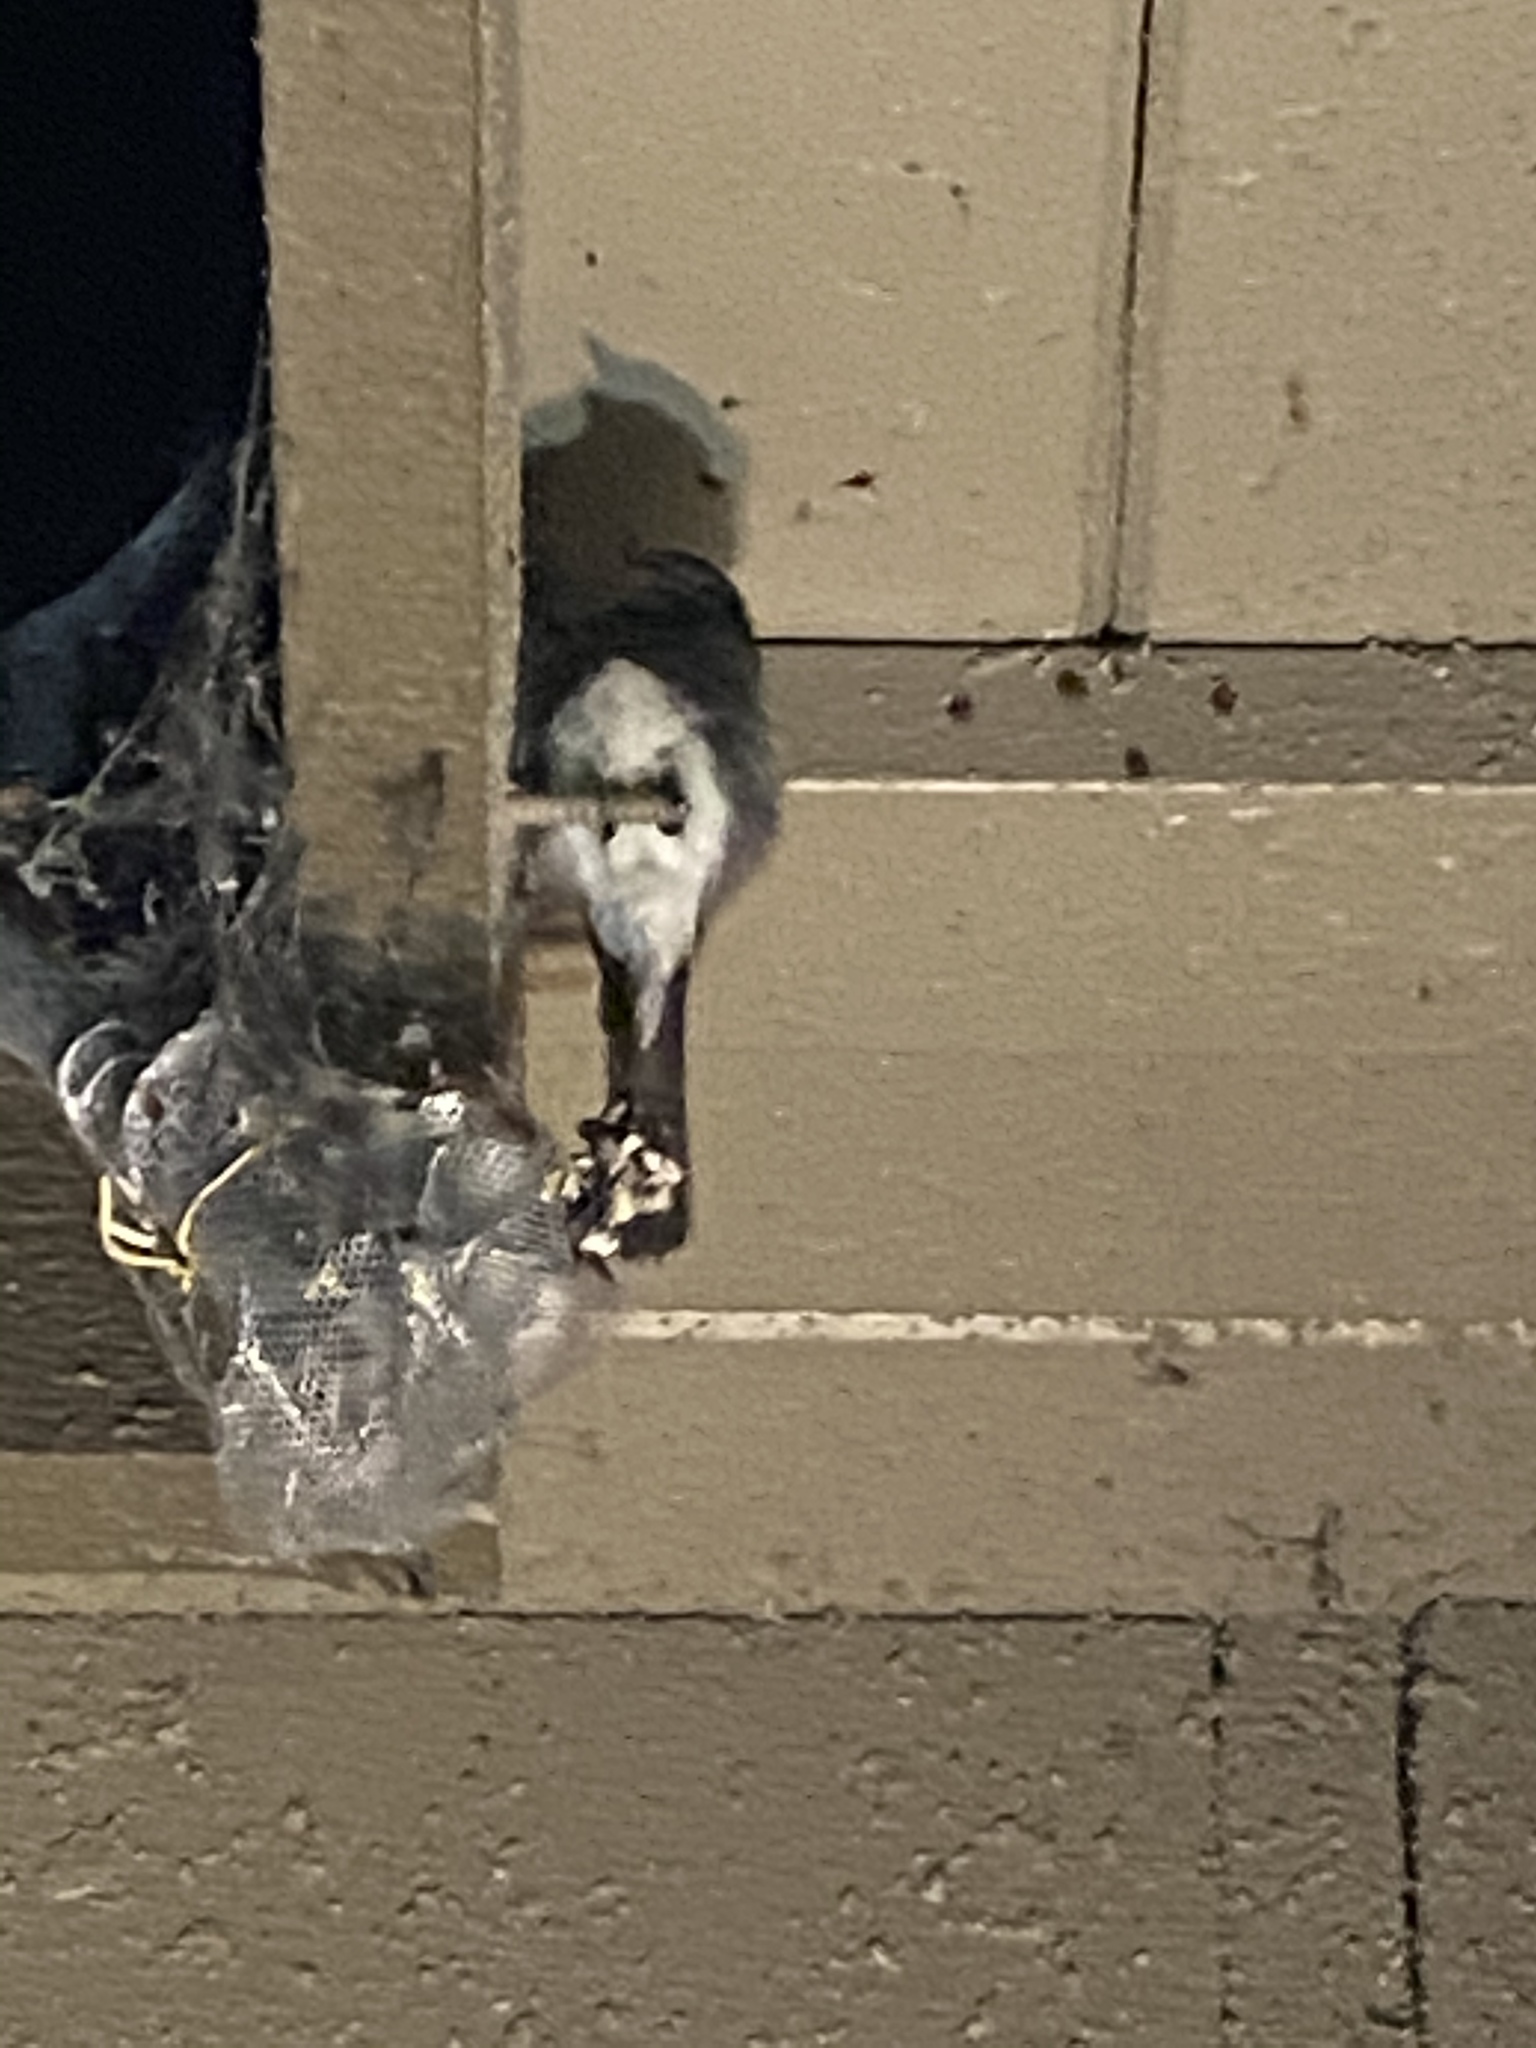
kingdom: Animalia
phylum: Chordata
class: Aves
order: Passeriformes
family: Tyrannidae
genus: Sayornis
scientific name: Sayornis nigricans
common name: Black phoebe
